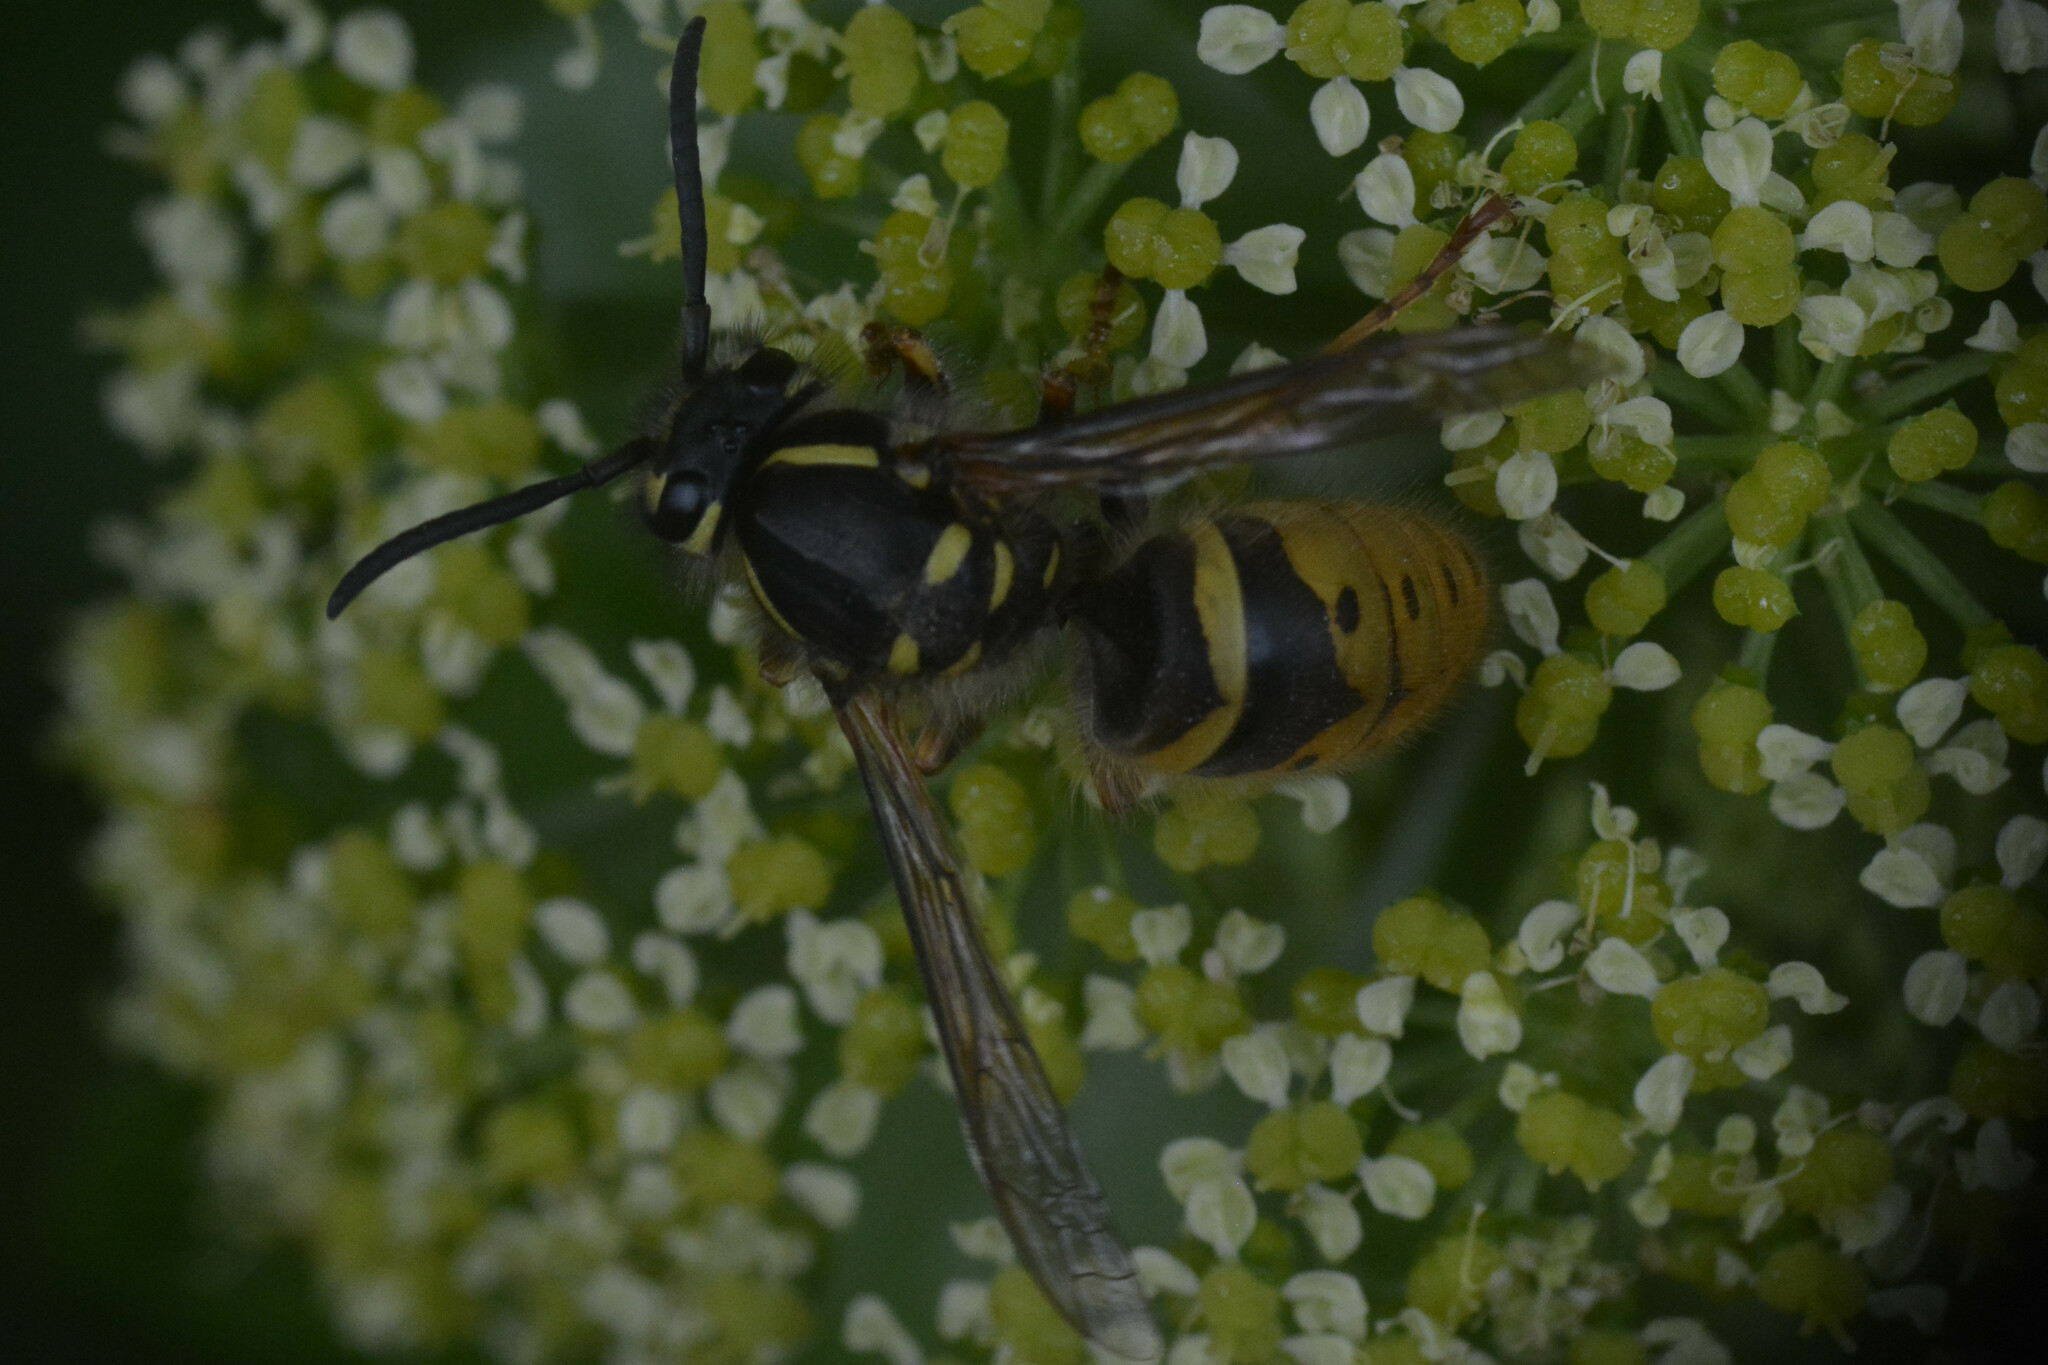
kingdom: Animalia
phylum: Arthropoda
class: Insecta
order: Hymenoptera
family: Vespidae
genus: Vespula
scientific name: Vespula vulgaris
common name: Common wasp
